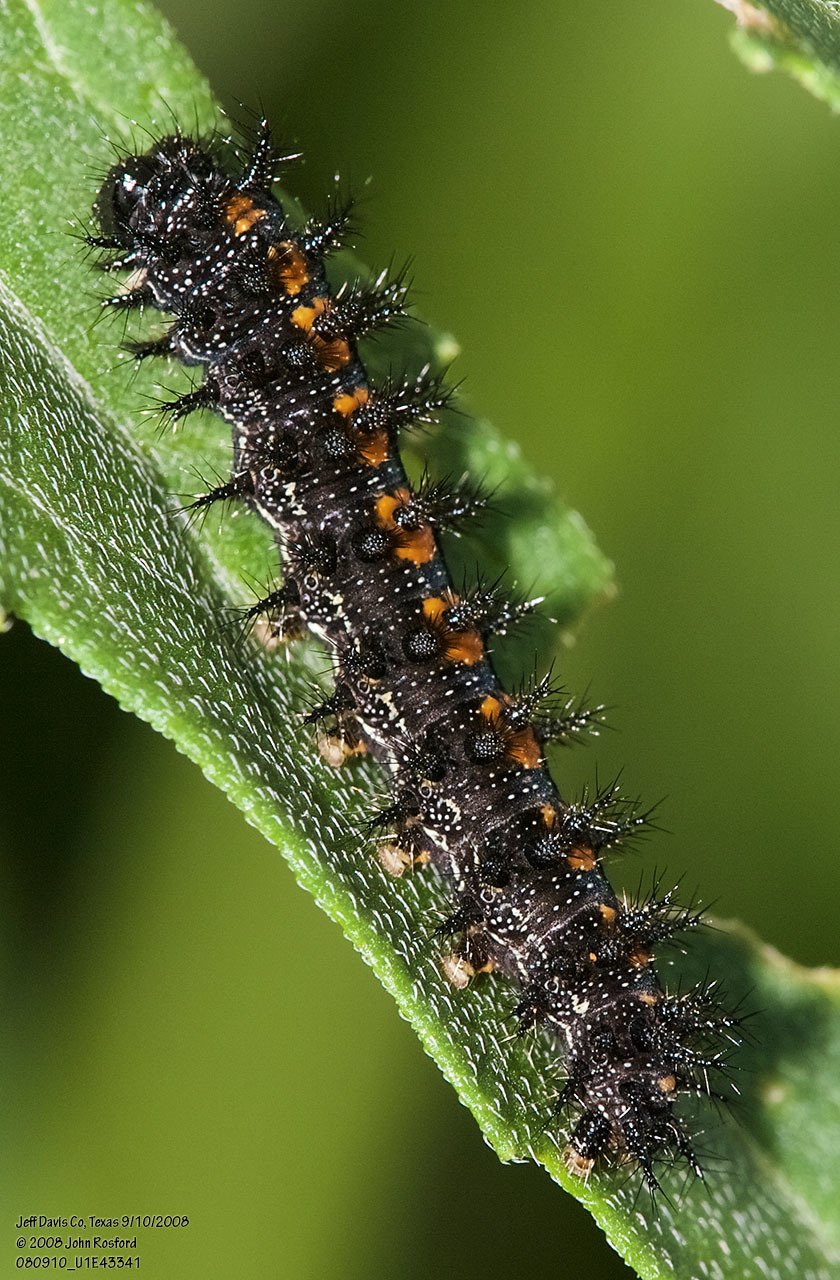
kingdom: Animalia
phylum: Arthropoda
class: Insecta
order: Lepidoptera
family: Nymphalidae
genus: Chlosyne
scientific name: Chlosyne lacinia
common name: Bordered patch
